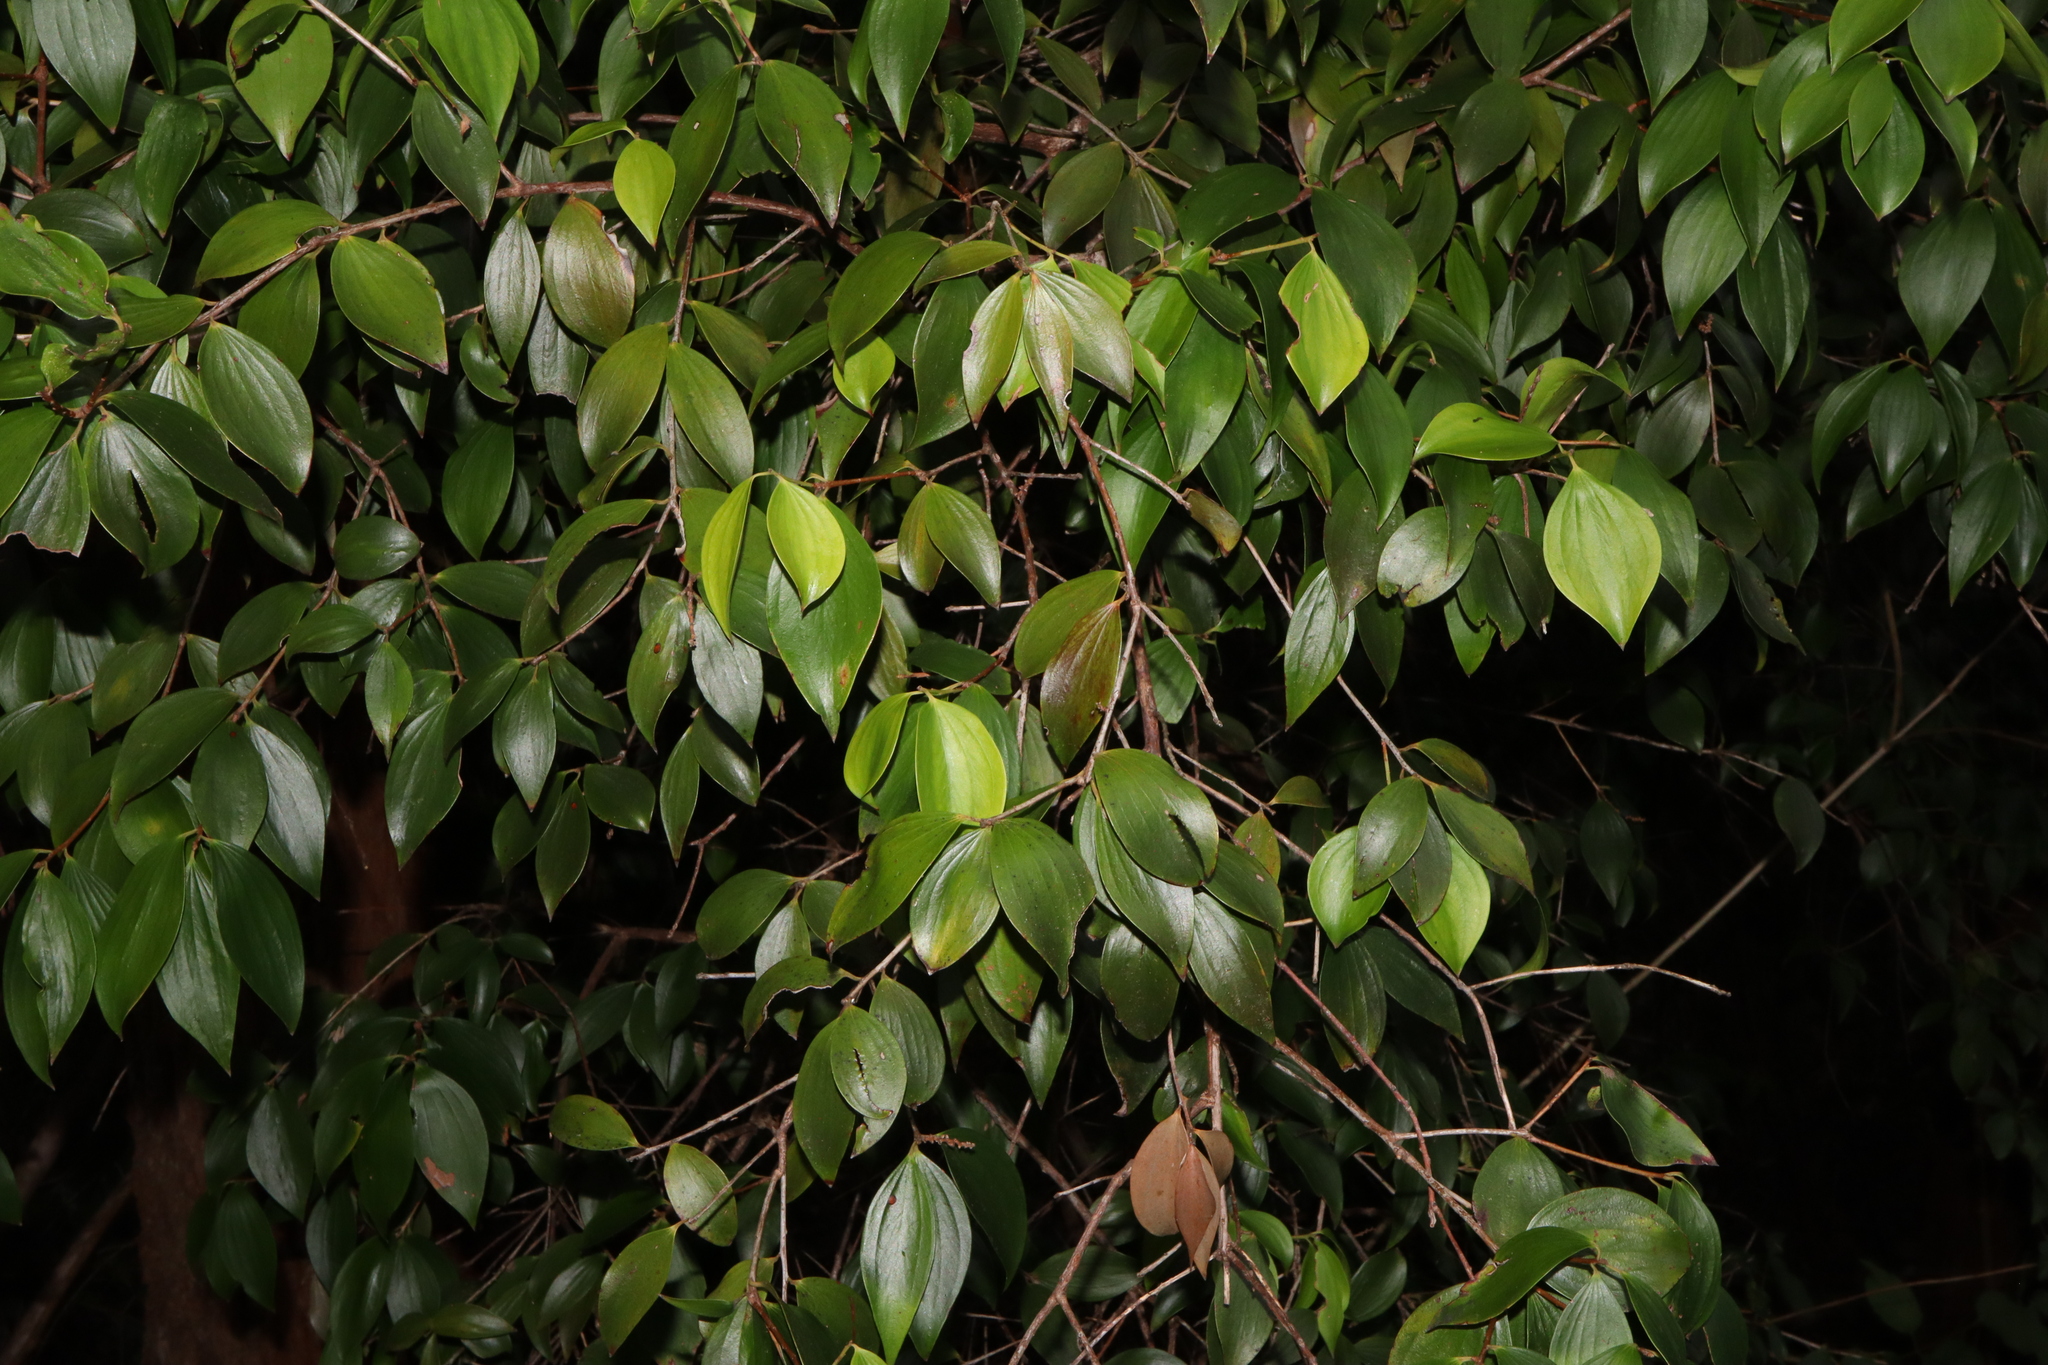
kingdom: Plantae
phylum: Tracheophyta
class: Magnoliopsida
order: Ericales
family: Ericaceae
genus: Trochocarpa
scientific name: Trochocarpa laurina
